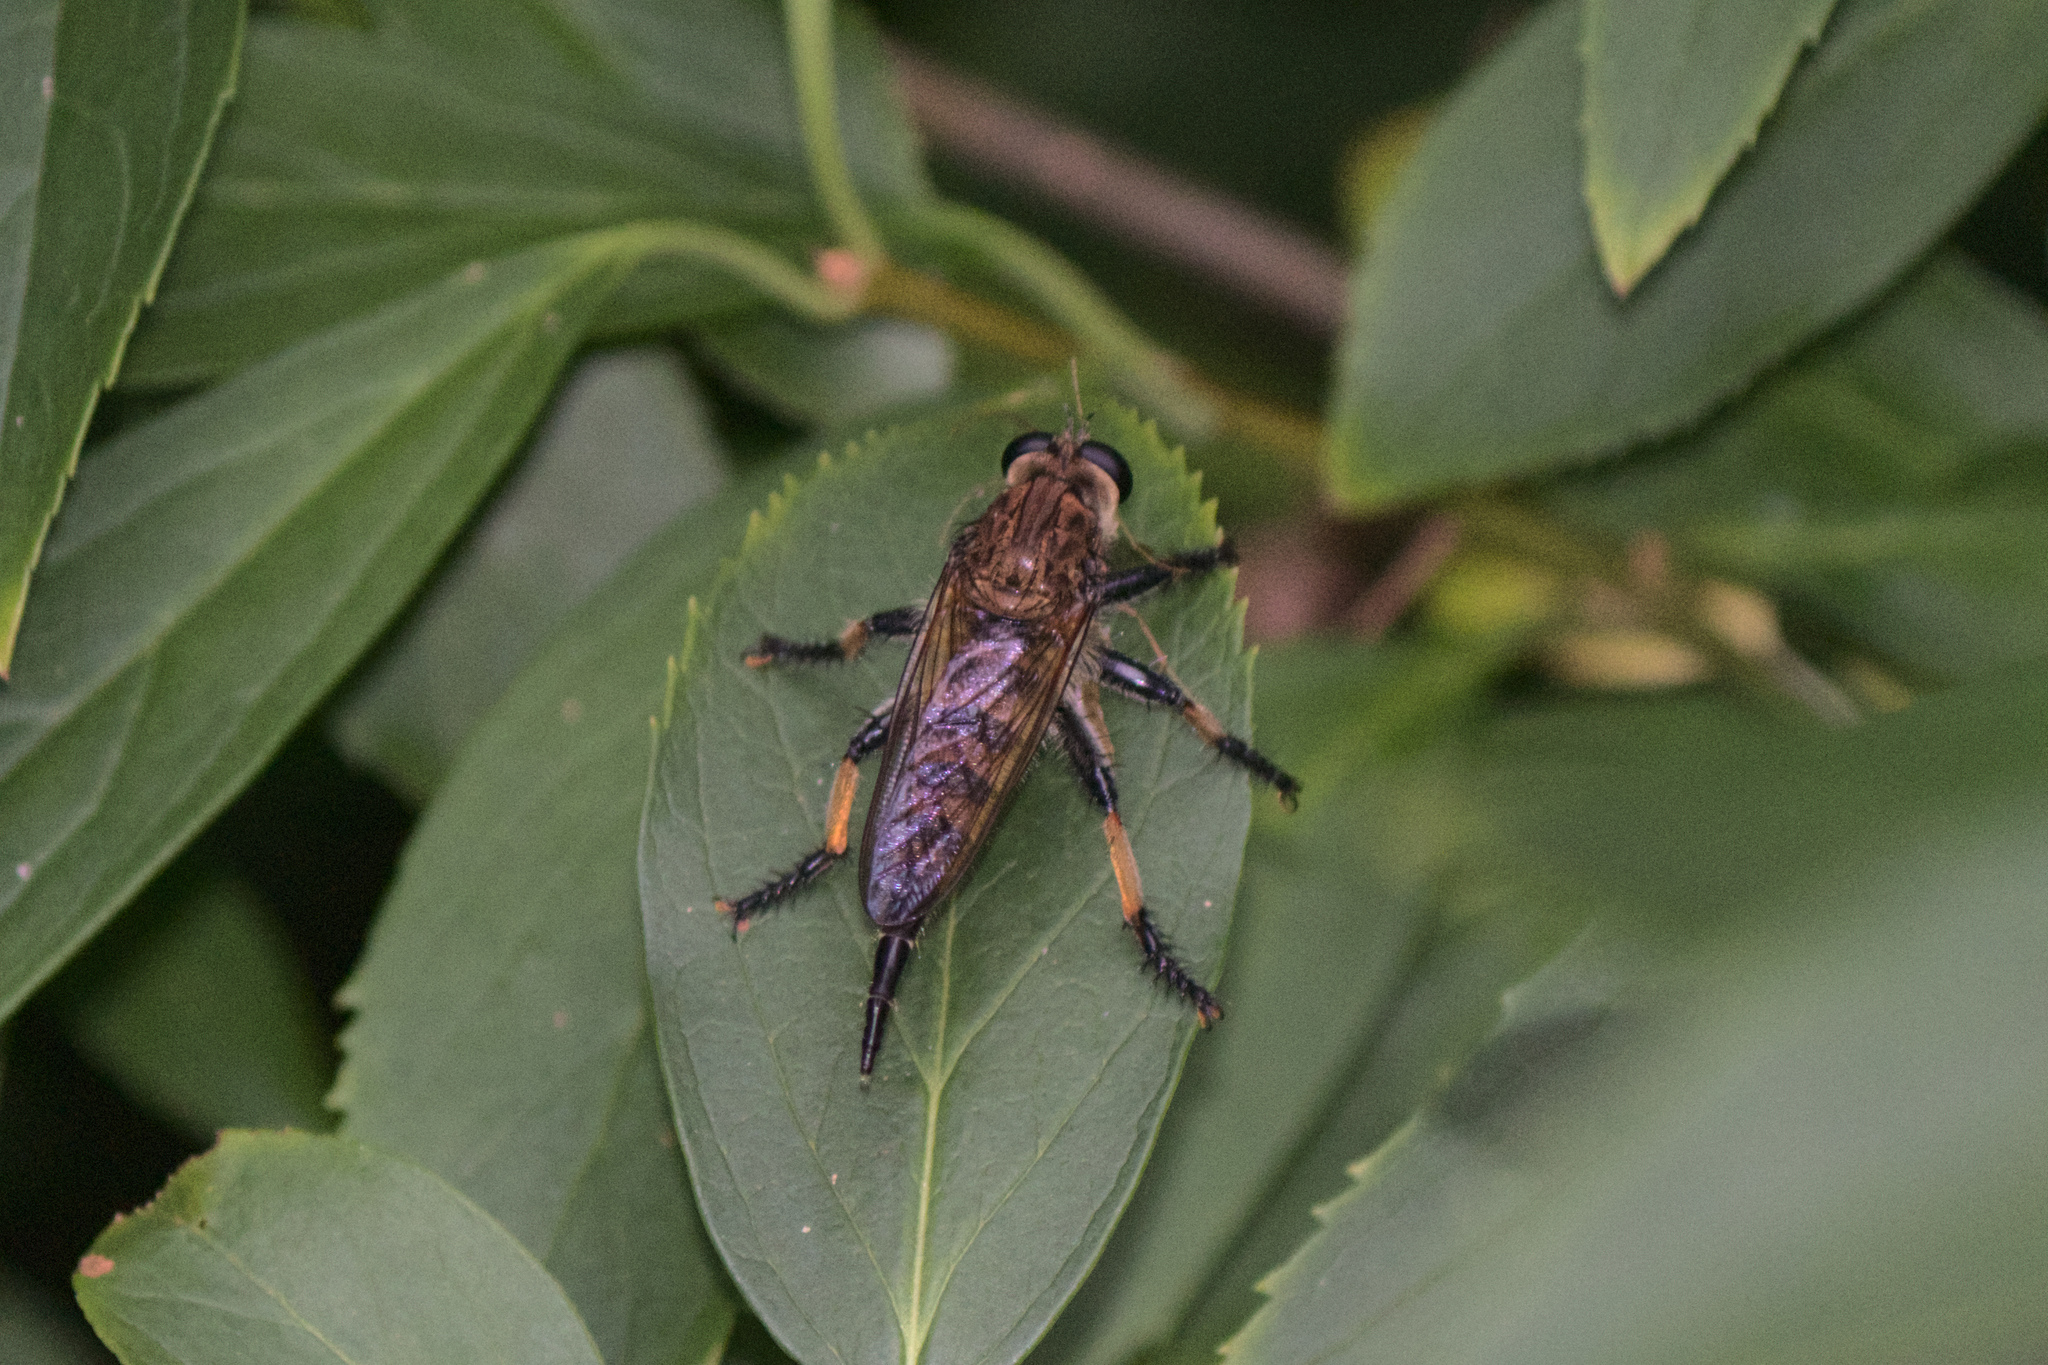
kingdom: Animalia
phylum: Arthropoda
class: Insecta
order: Diptera
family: Asilidae
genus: Promachus
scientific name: Promachus rufipes
